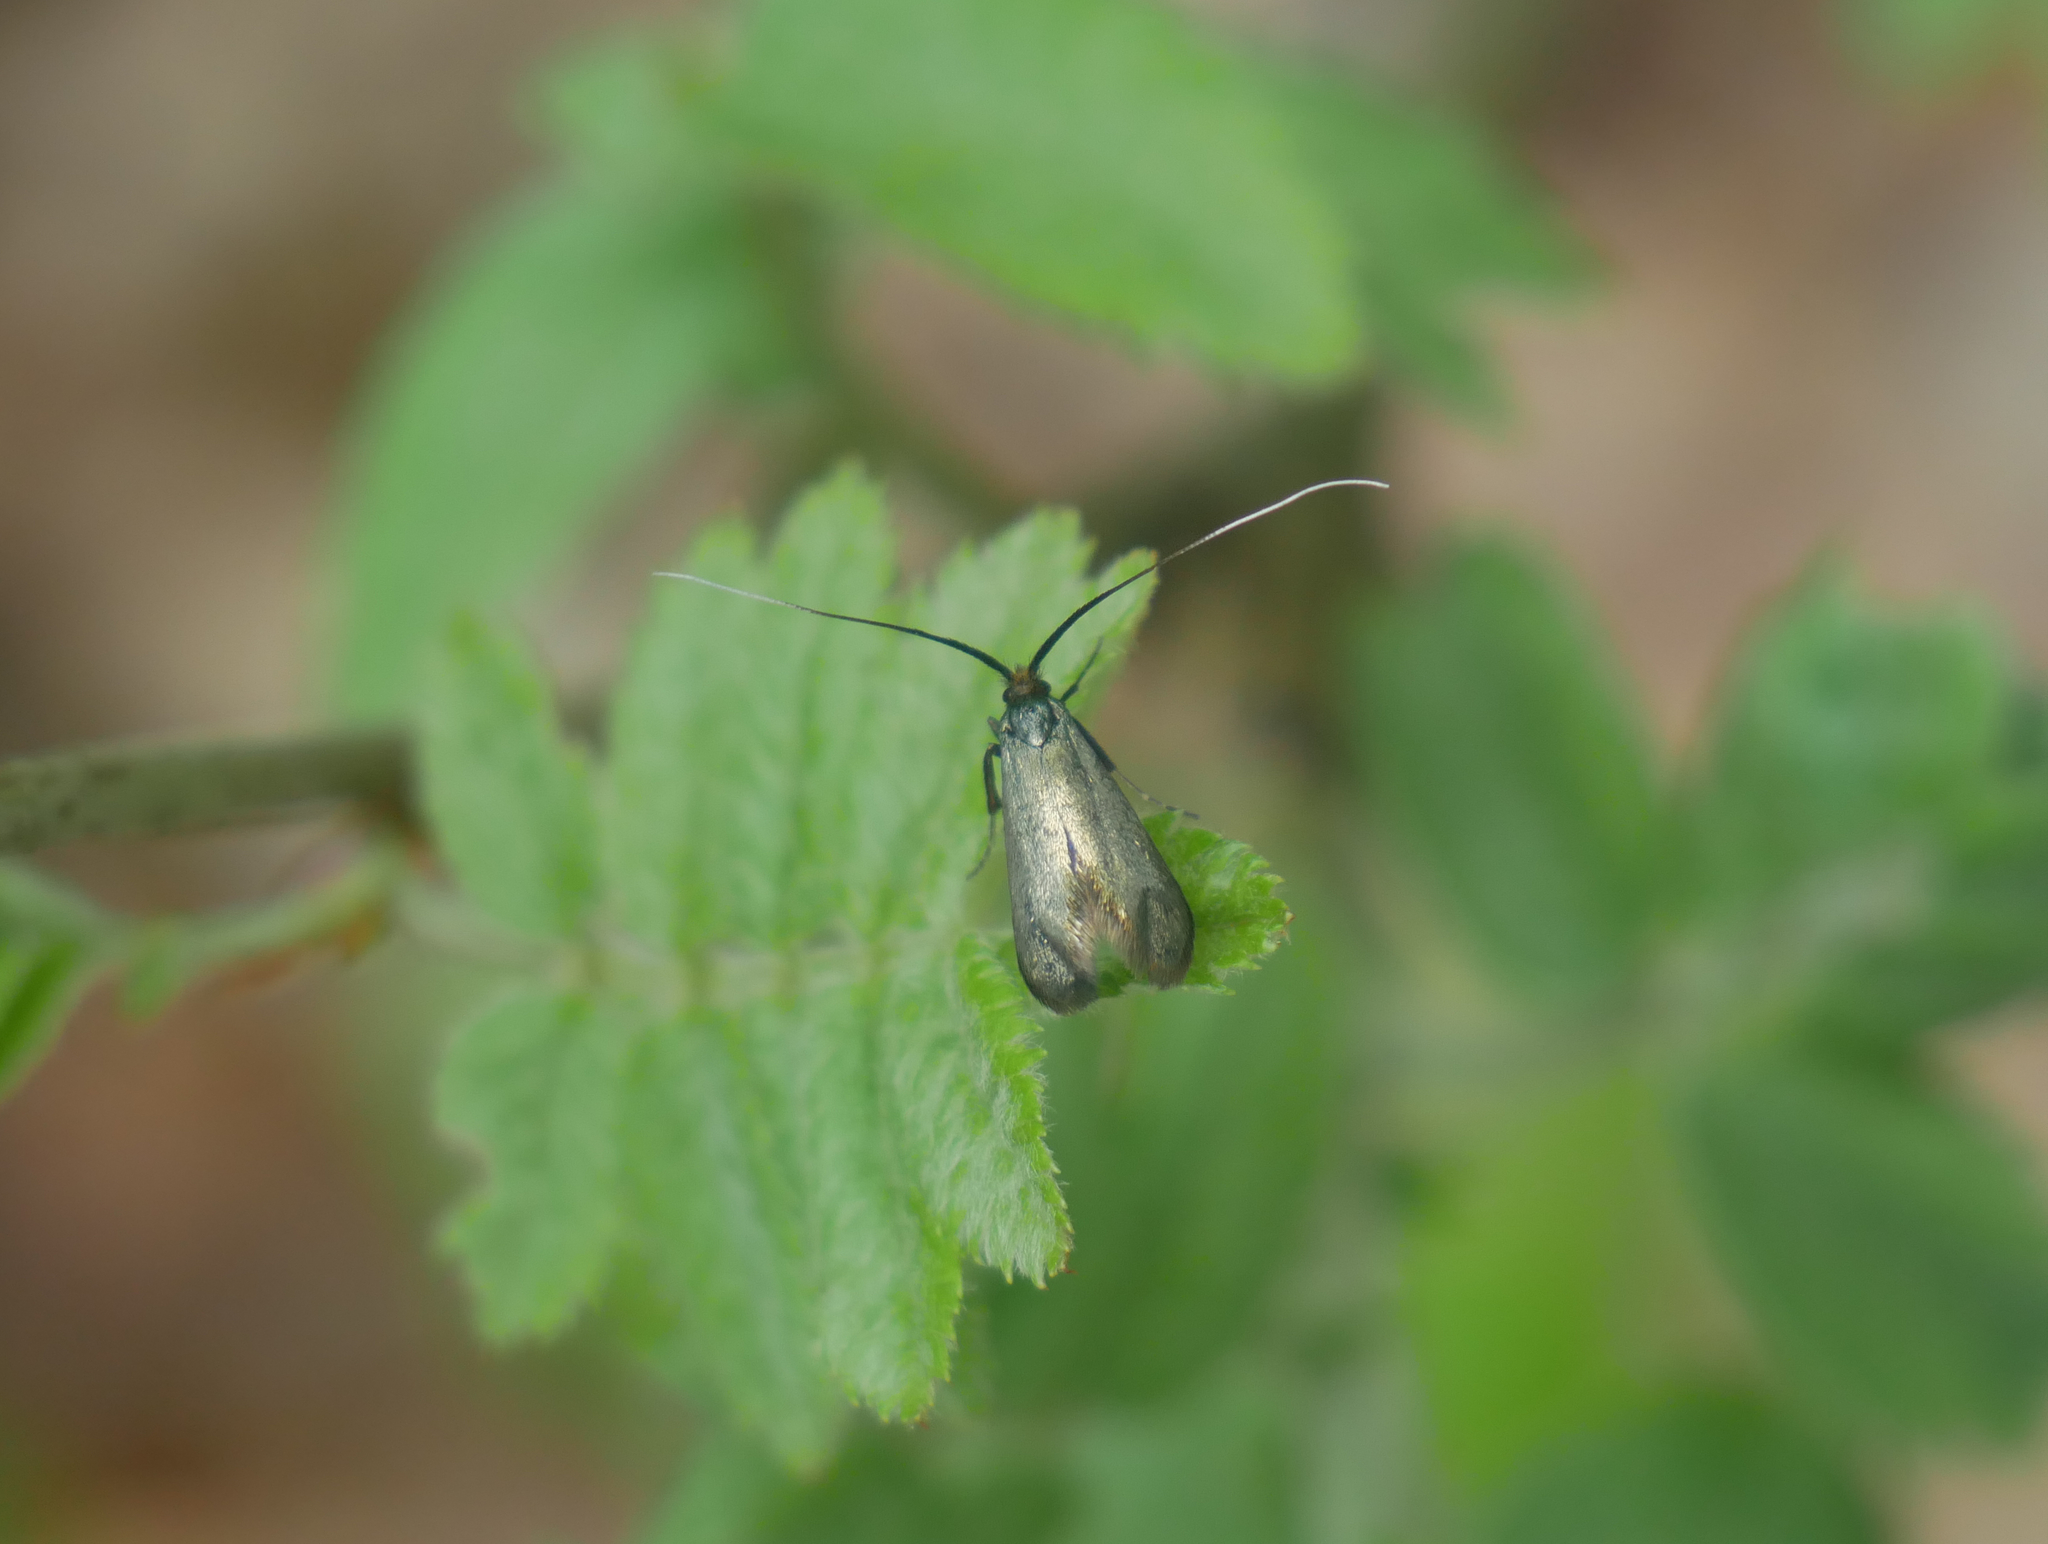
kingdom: Animalia
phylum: Arthropoda
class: Insecta
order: Lepidoptera
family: Adelidae
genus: Adela
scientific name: Adela viridella
